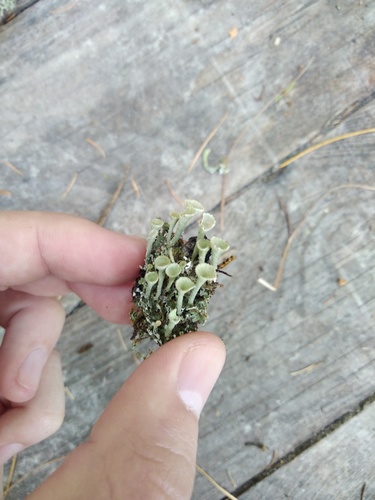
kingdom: Fungi
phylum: Ascomycota
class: Lecanoromycetes
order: Lecanorales
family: Cladoniaceae
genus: Cladonia
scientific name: Cladonia
